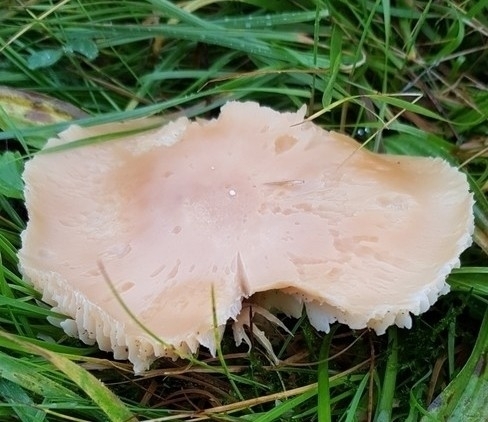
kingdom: Fungi
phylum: Basidiomycota
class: Agaricomycetes
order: Agaricales
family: Hygrophoraceae
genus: Cuphophyllus
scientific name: Cuphophyllus pratensis
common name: Meadow waxcap
